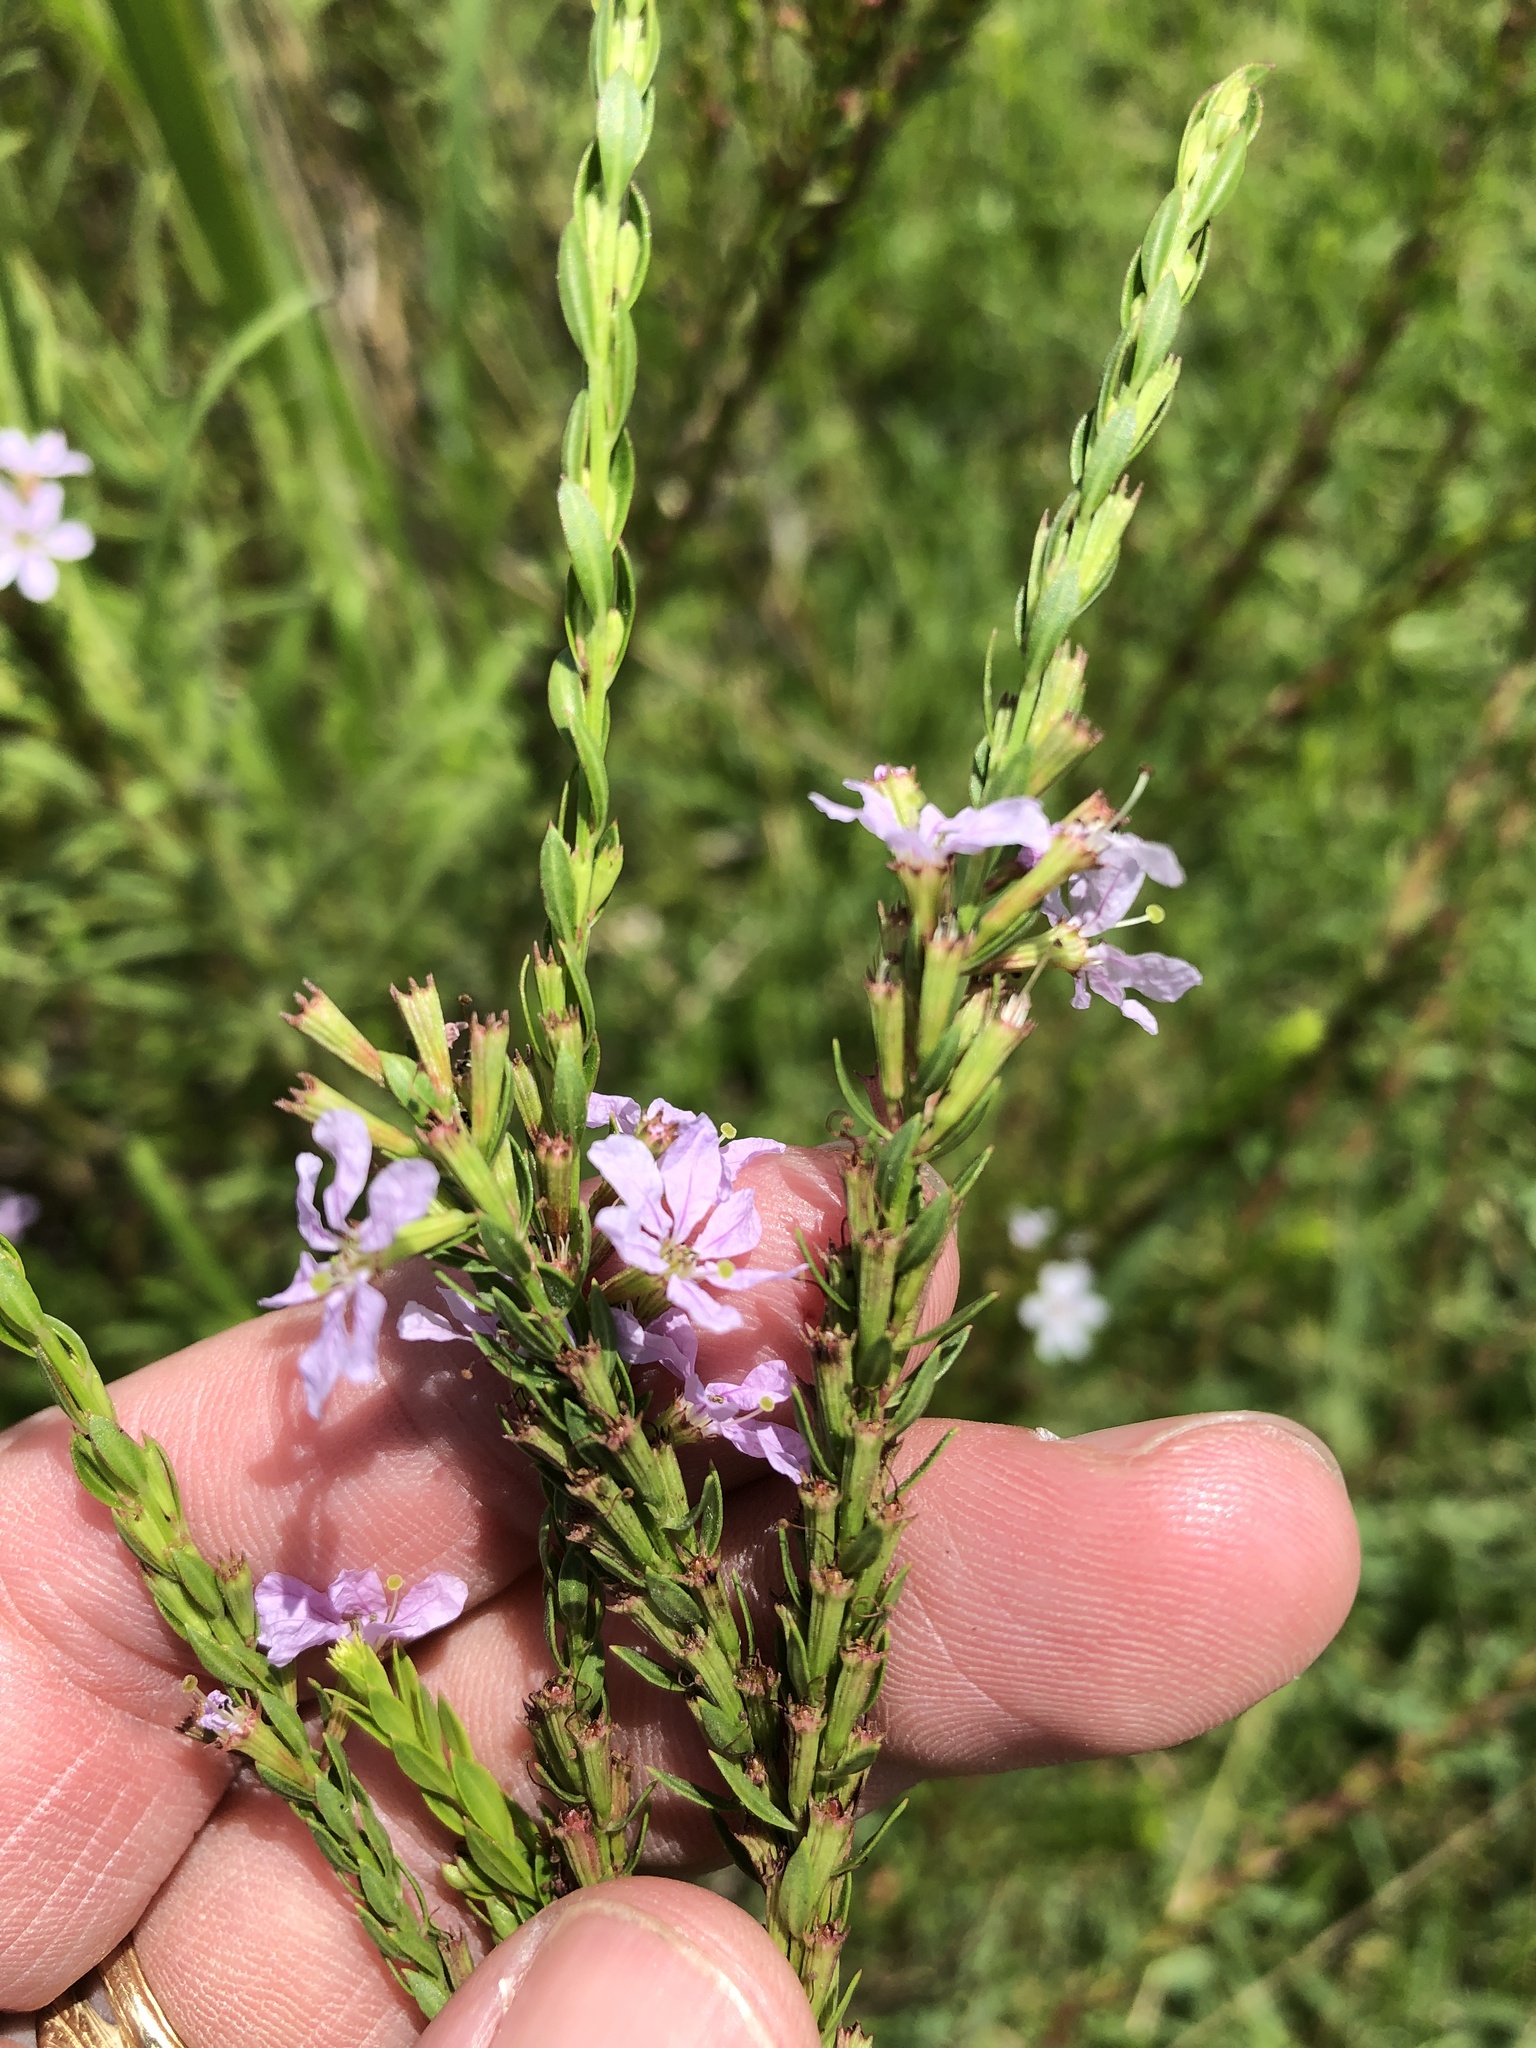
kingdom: Plantae
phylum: Tracheophyta
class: Magnoliopsida
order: Myrtales
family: Lythraceae
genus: Lythrum
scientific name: Lythrum alatum
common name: Winged loosestrife
